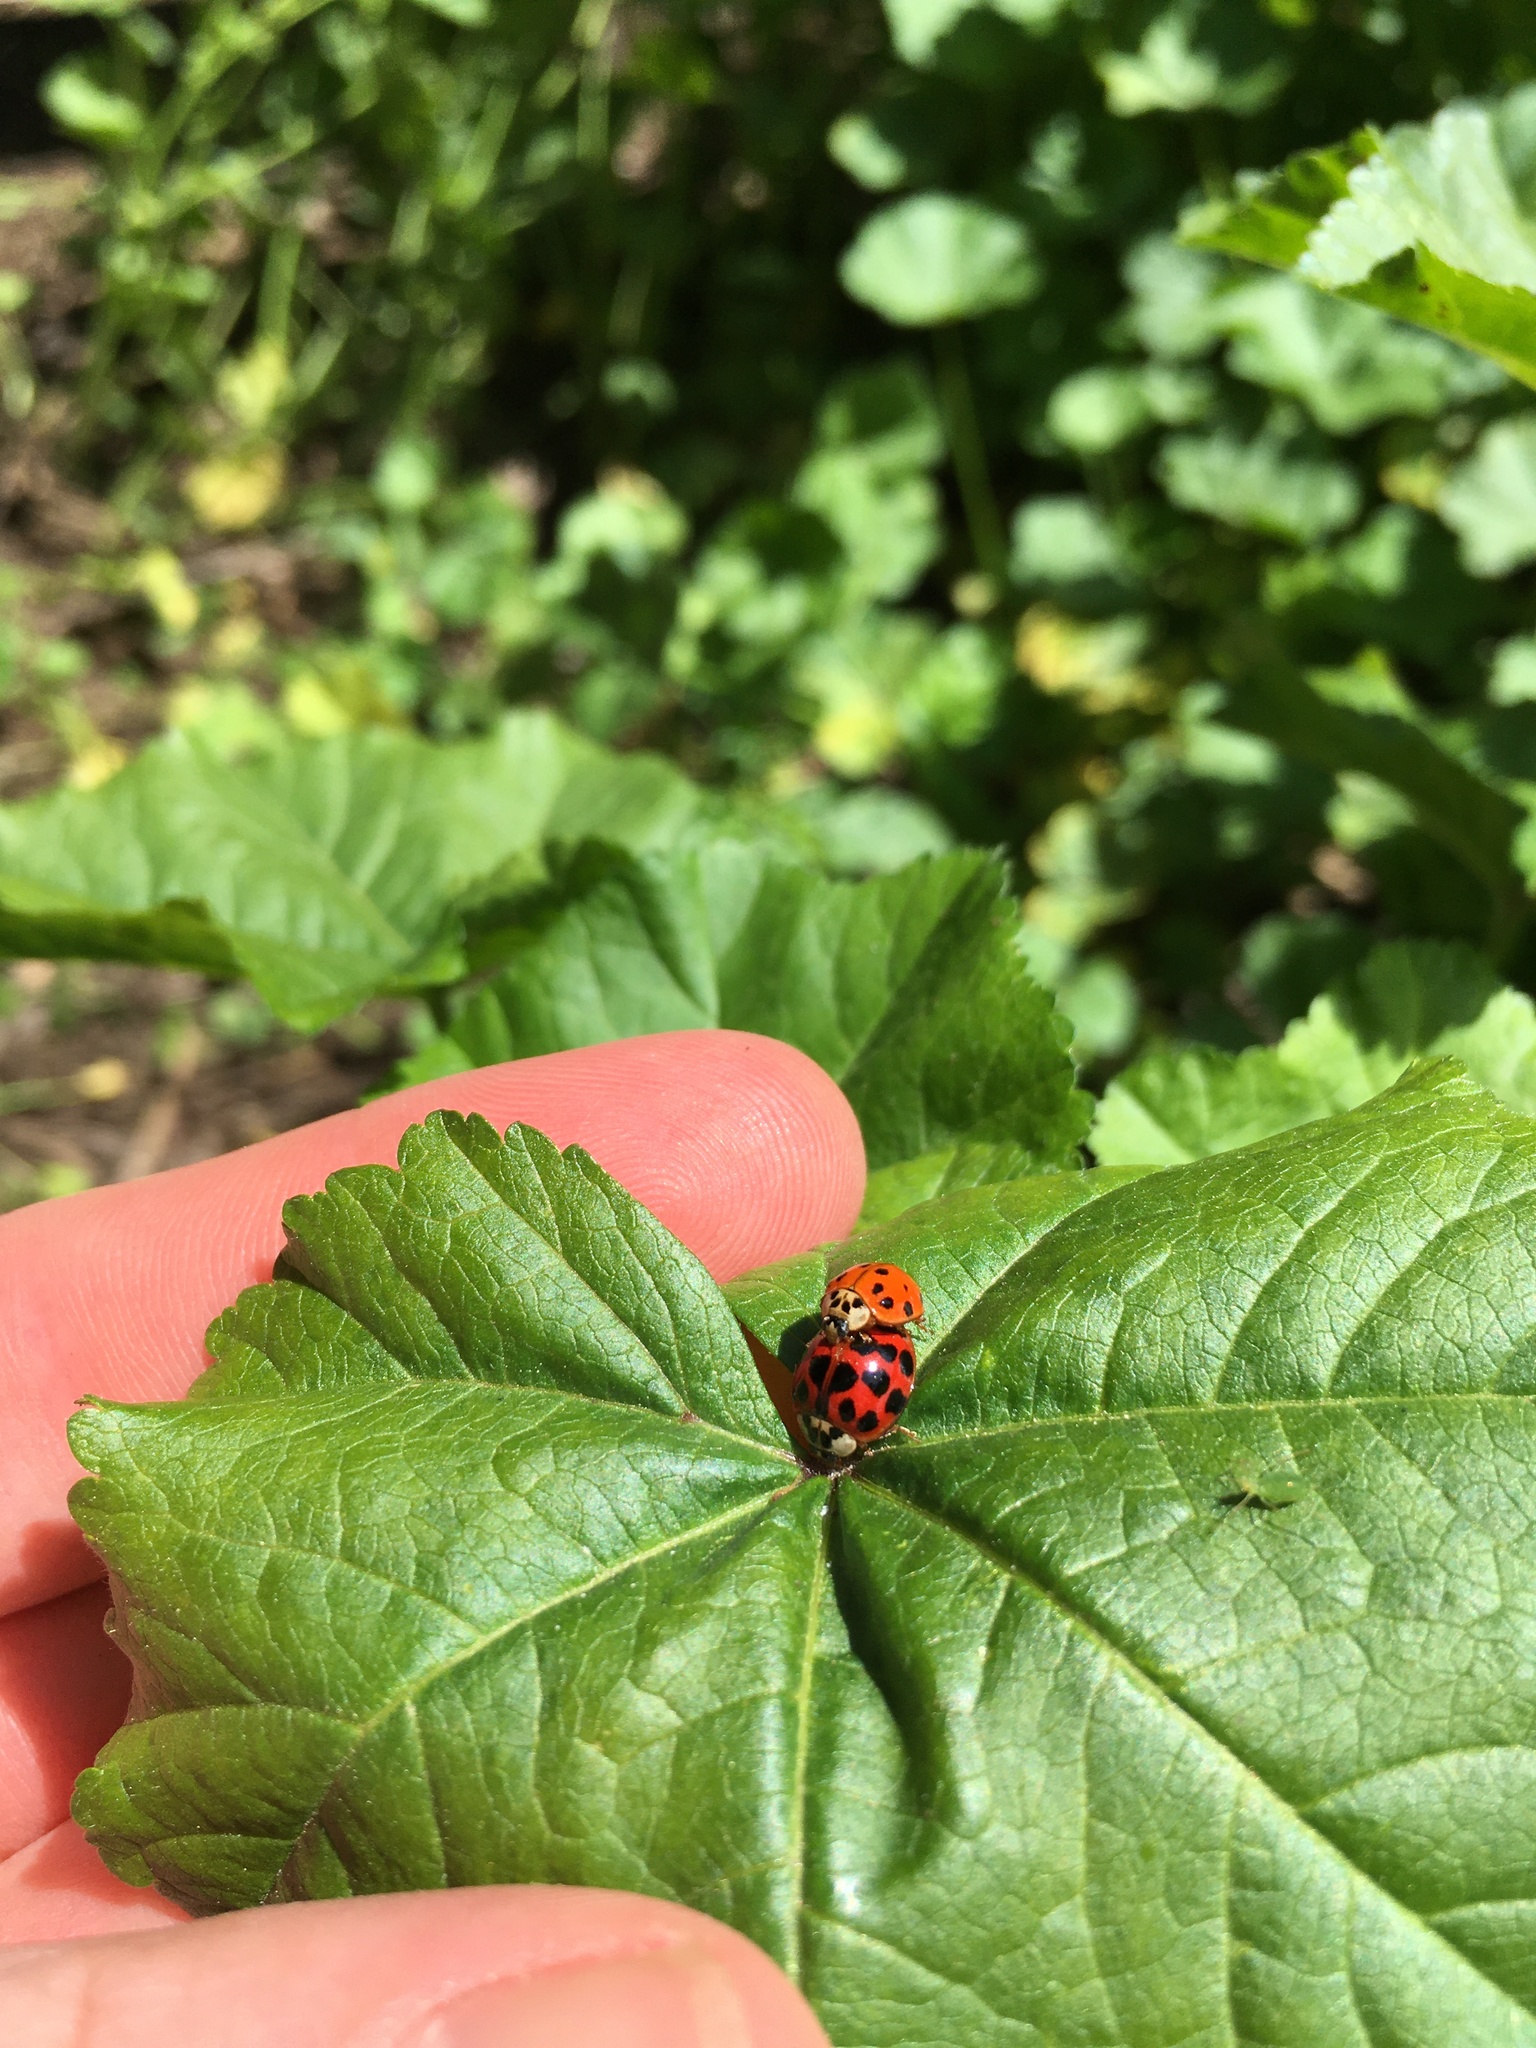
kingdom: Animalia
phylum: Arthropoda
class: Insecta
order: Coleoptera
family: Coccinellidae
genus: Harmonia
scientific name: Harmonia axyridis
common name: Harlequin ladybird
